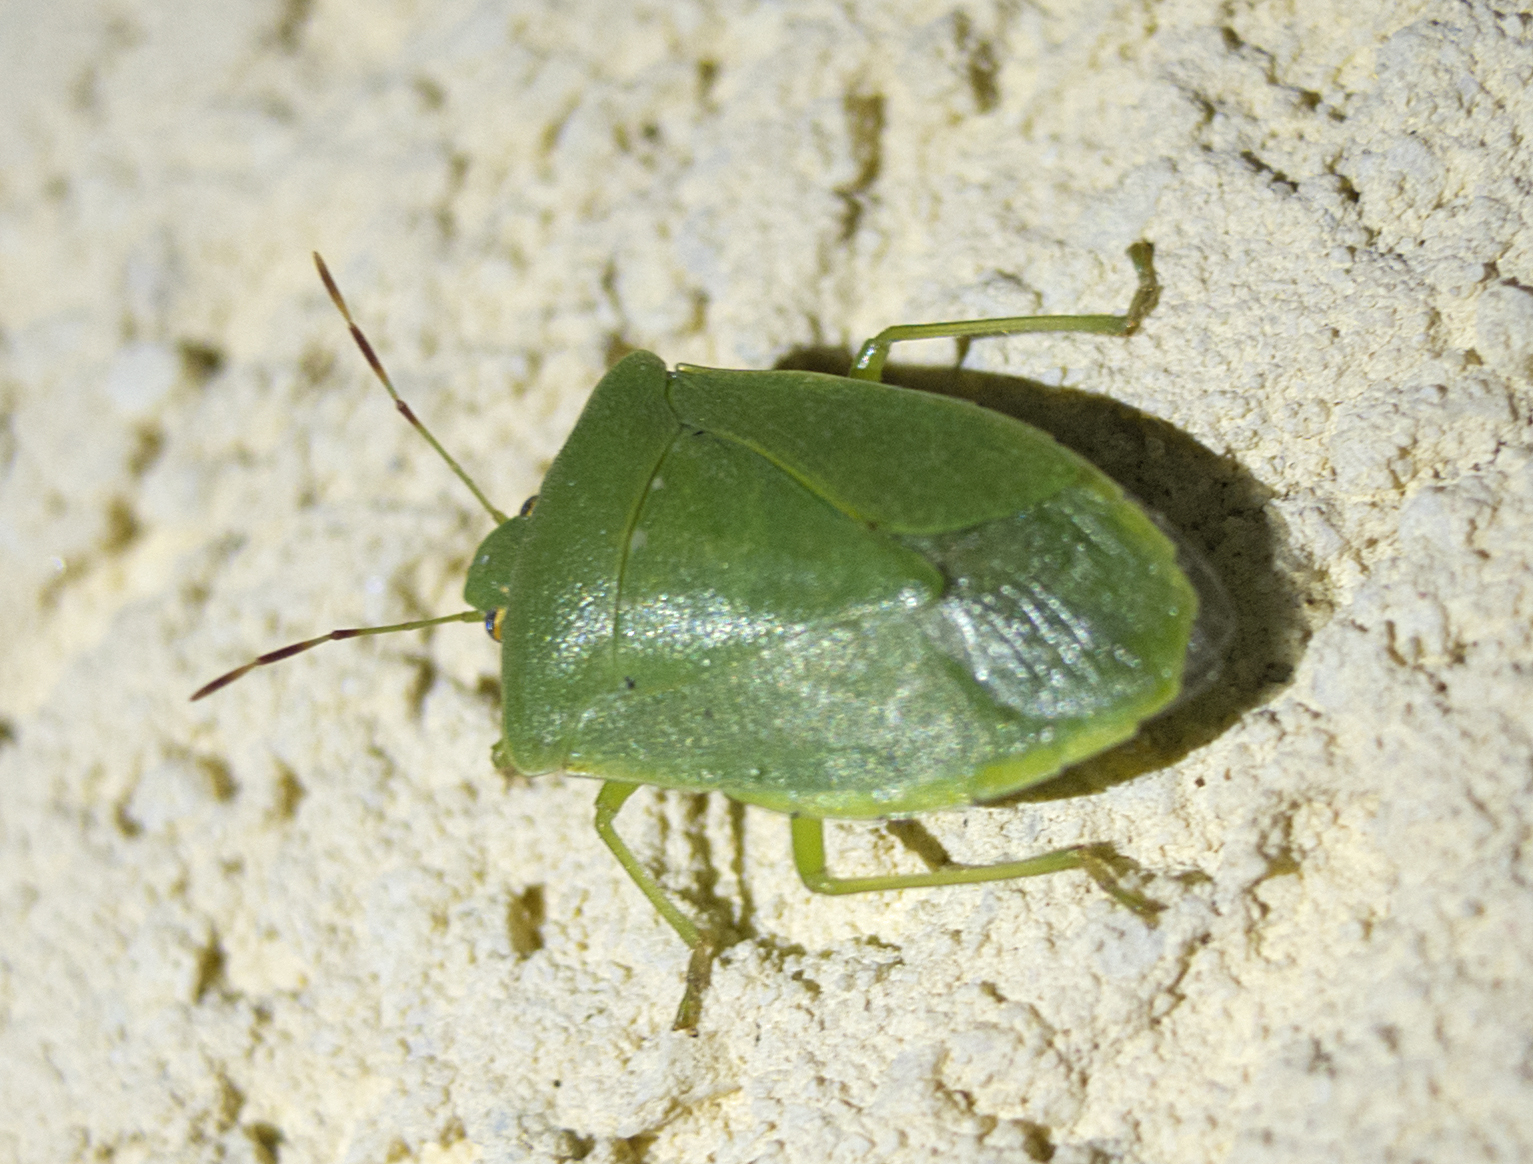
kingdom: Animalia
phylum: Arthropoda
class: Insecta
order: Hemiptera
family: Pentatomidae
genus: Nezara
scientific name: Nezara viridula
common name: Southern green stink bug
